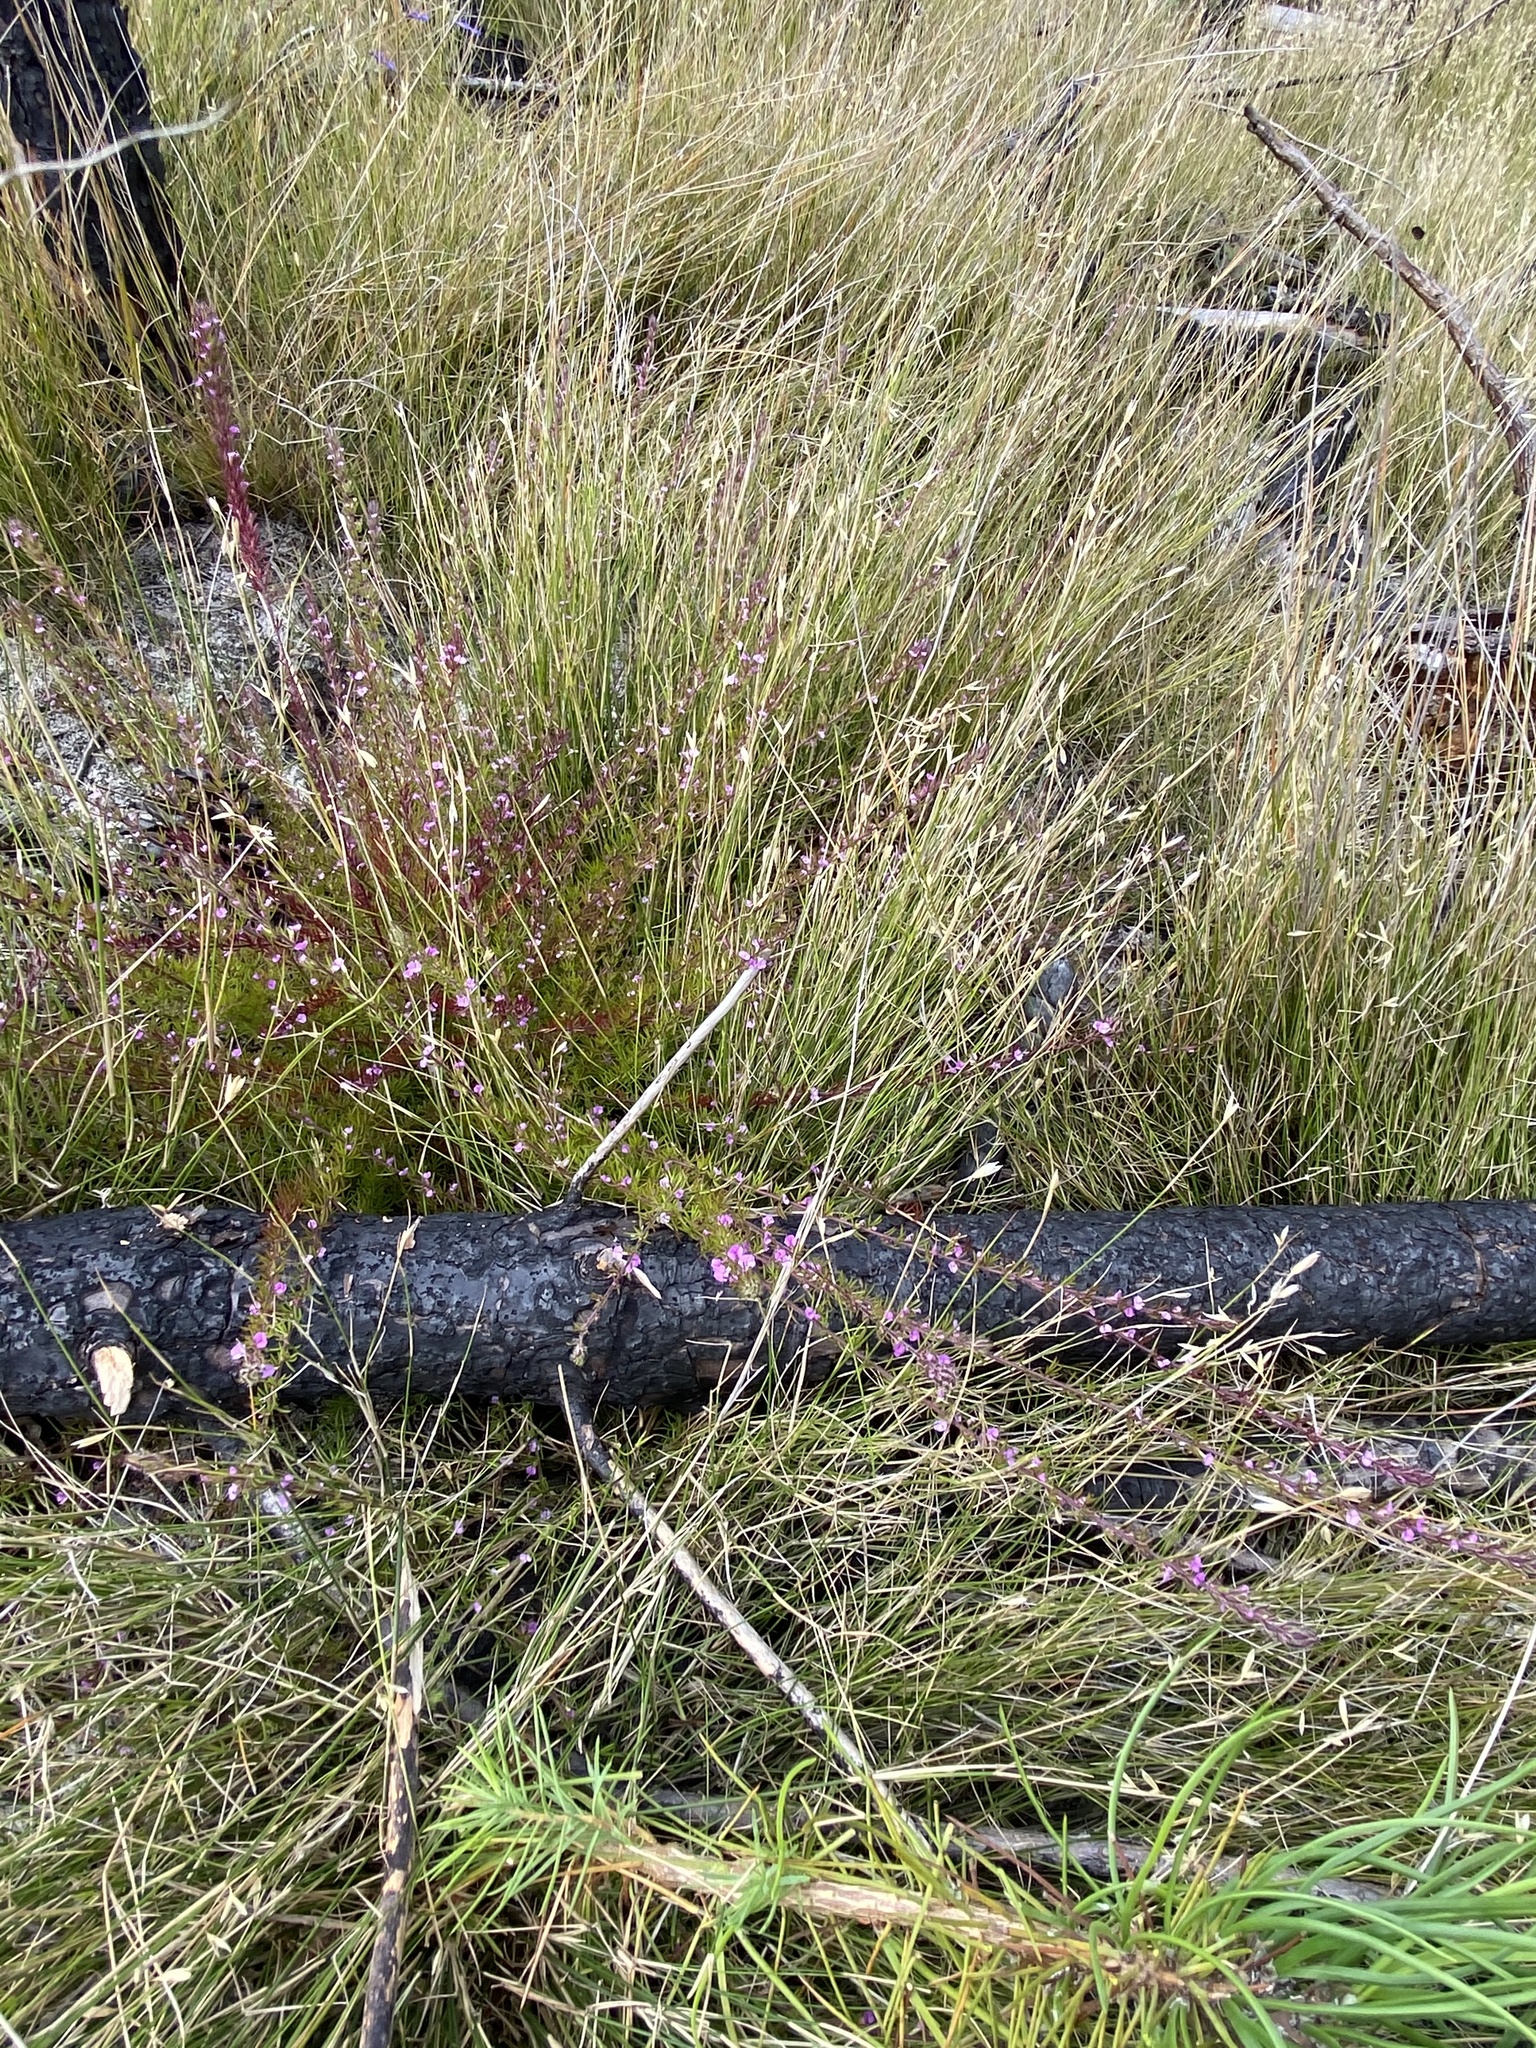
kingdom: Plantae
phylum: Tracheophyta
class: Magnoliopsida
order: Fabales
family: Polygalaceae
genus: Muraltia
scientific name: Muraltia chamaepitys
